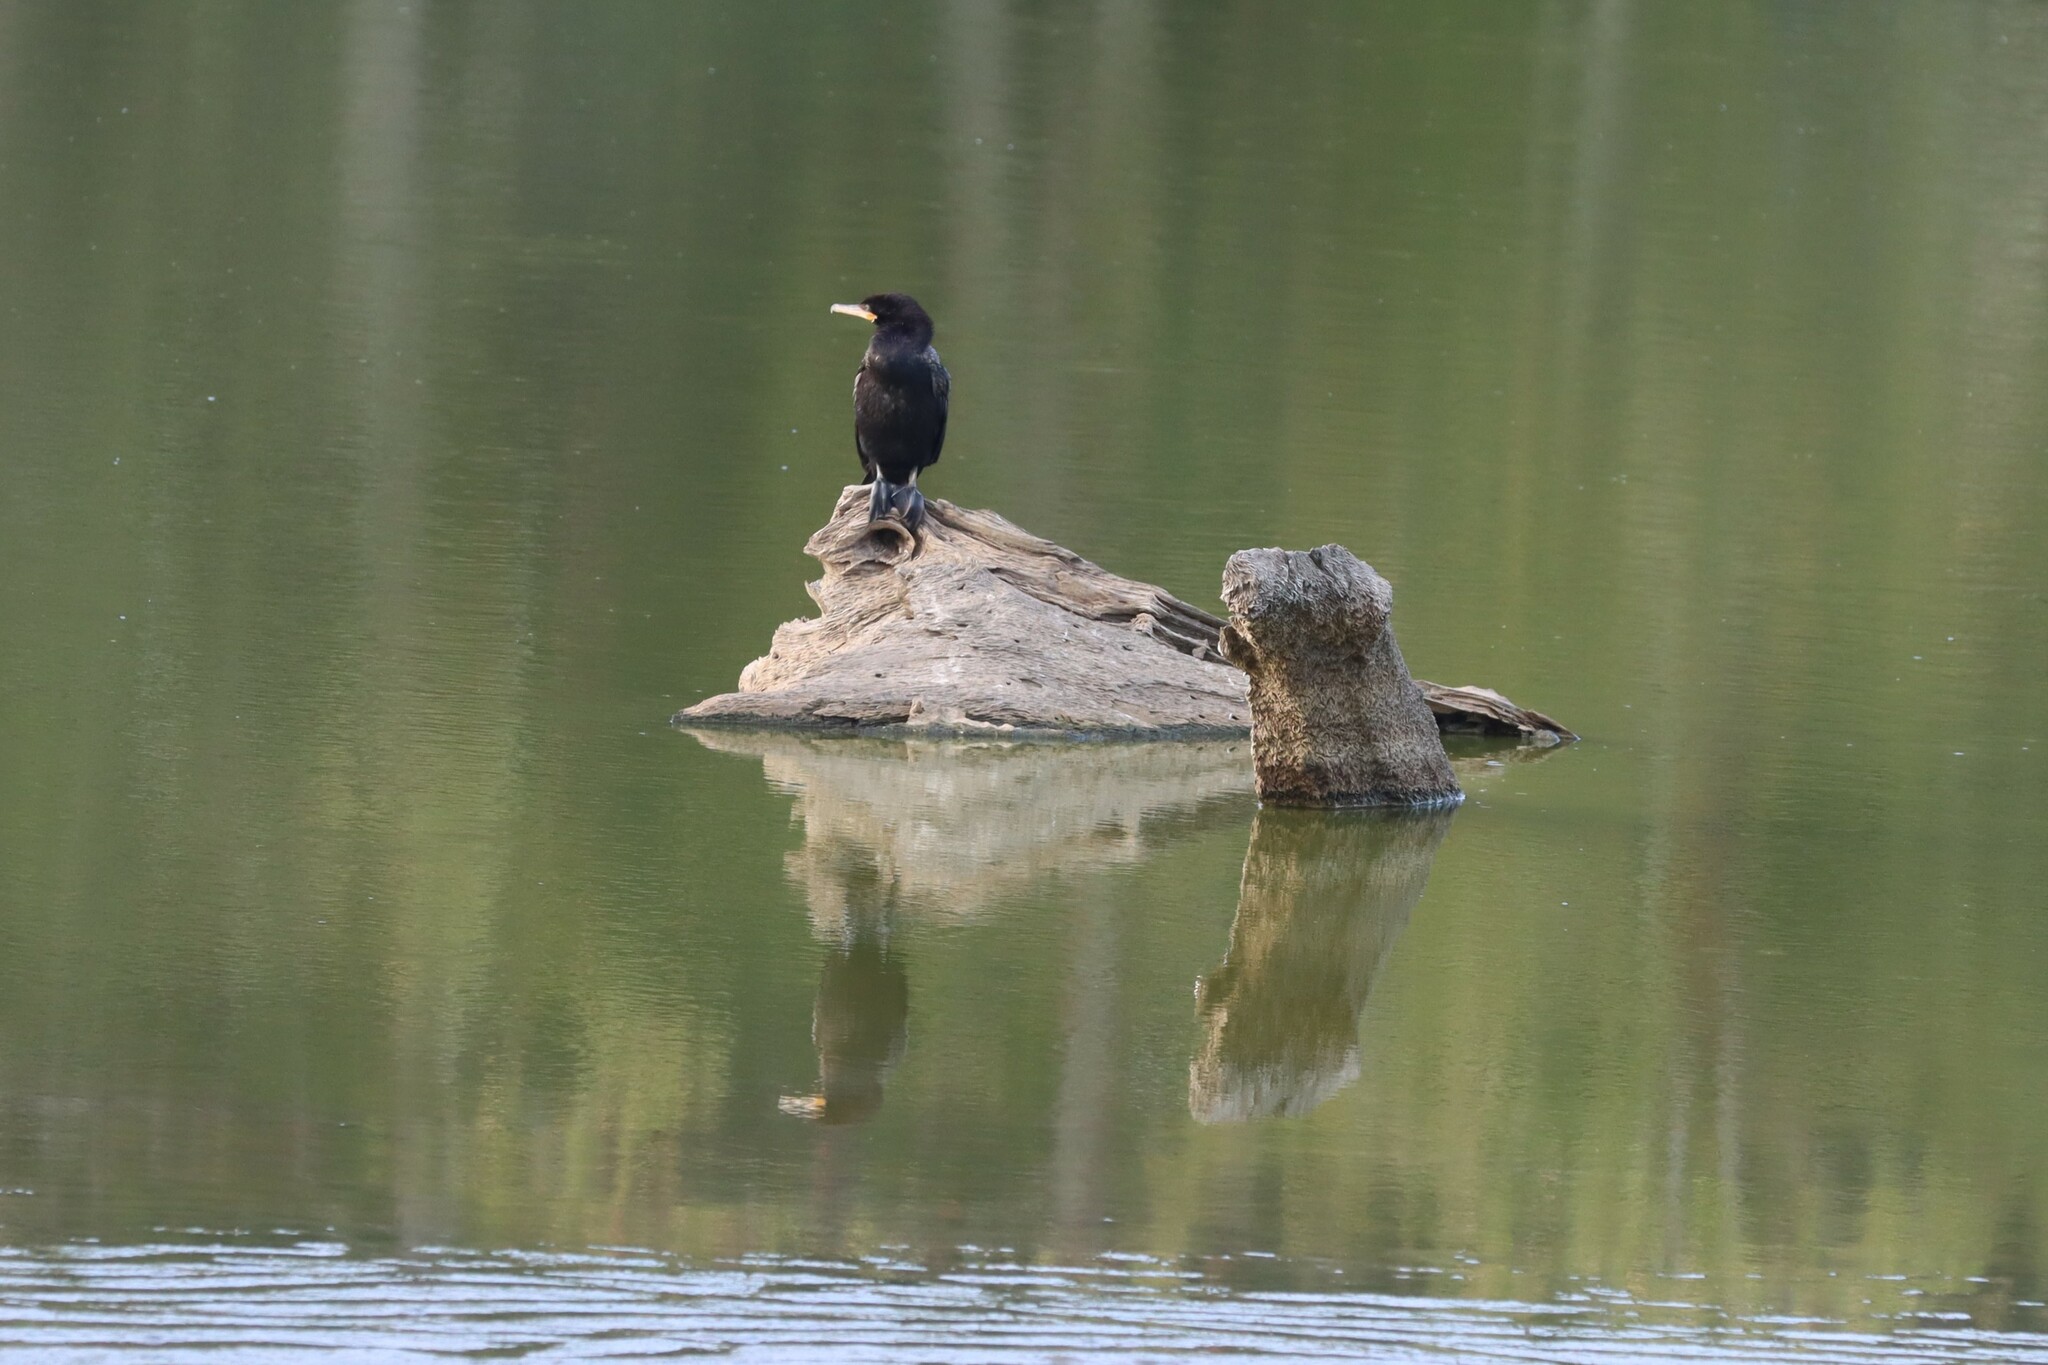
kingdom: Animalia
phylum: Chordata
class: Aves
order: Suliformes
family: Phalacrocoracidae
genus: Phalacrocorax
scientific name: Phalacrocorax brasilianus
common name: Neotropic cormorant
